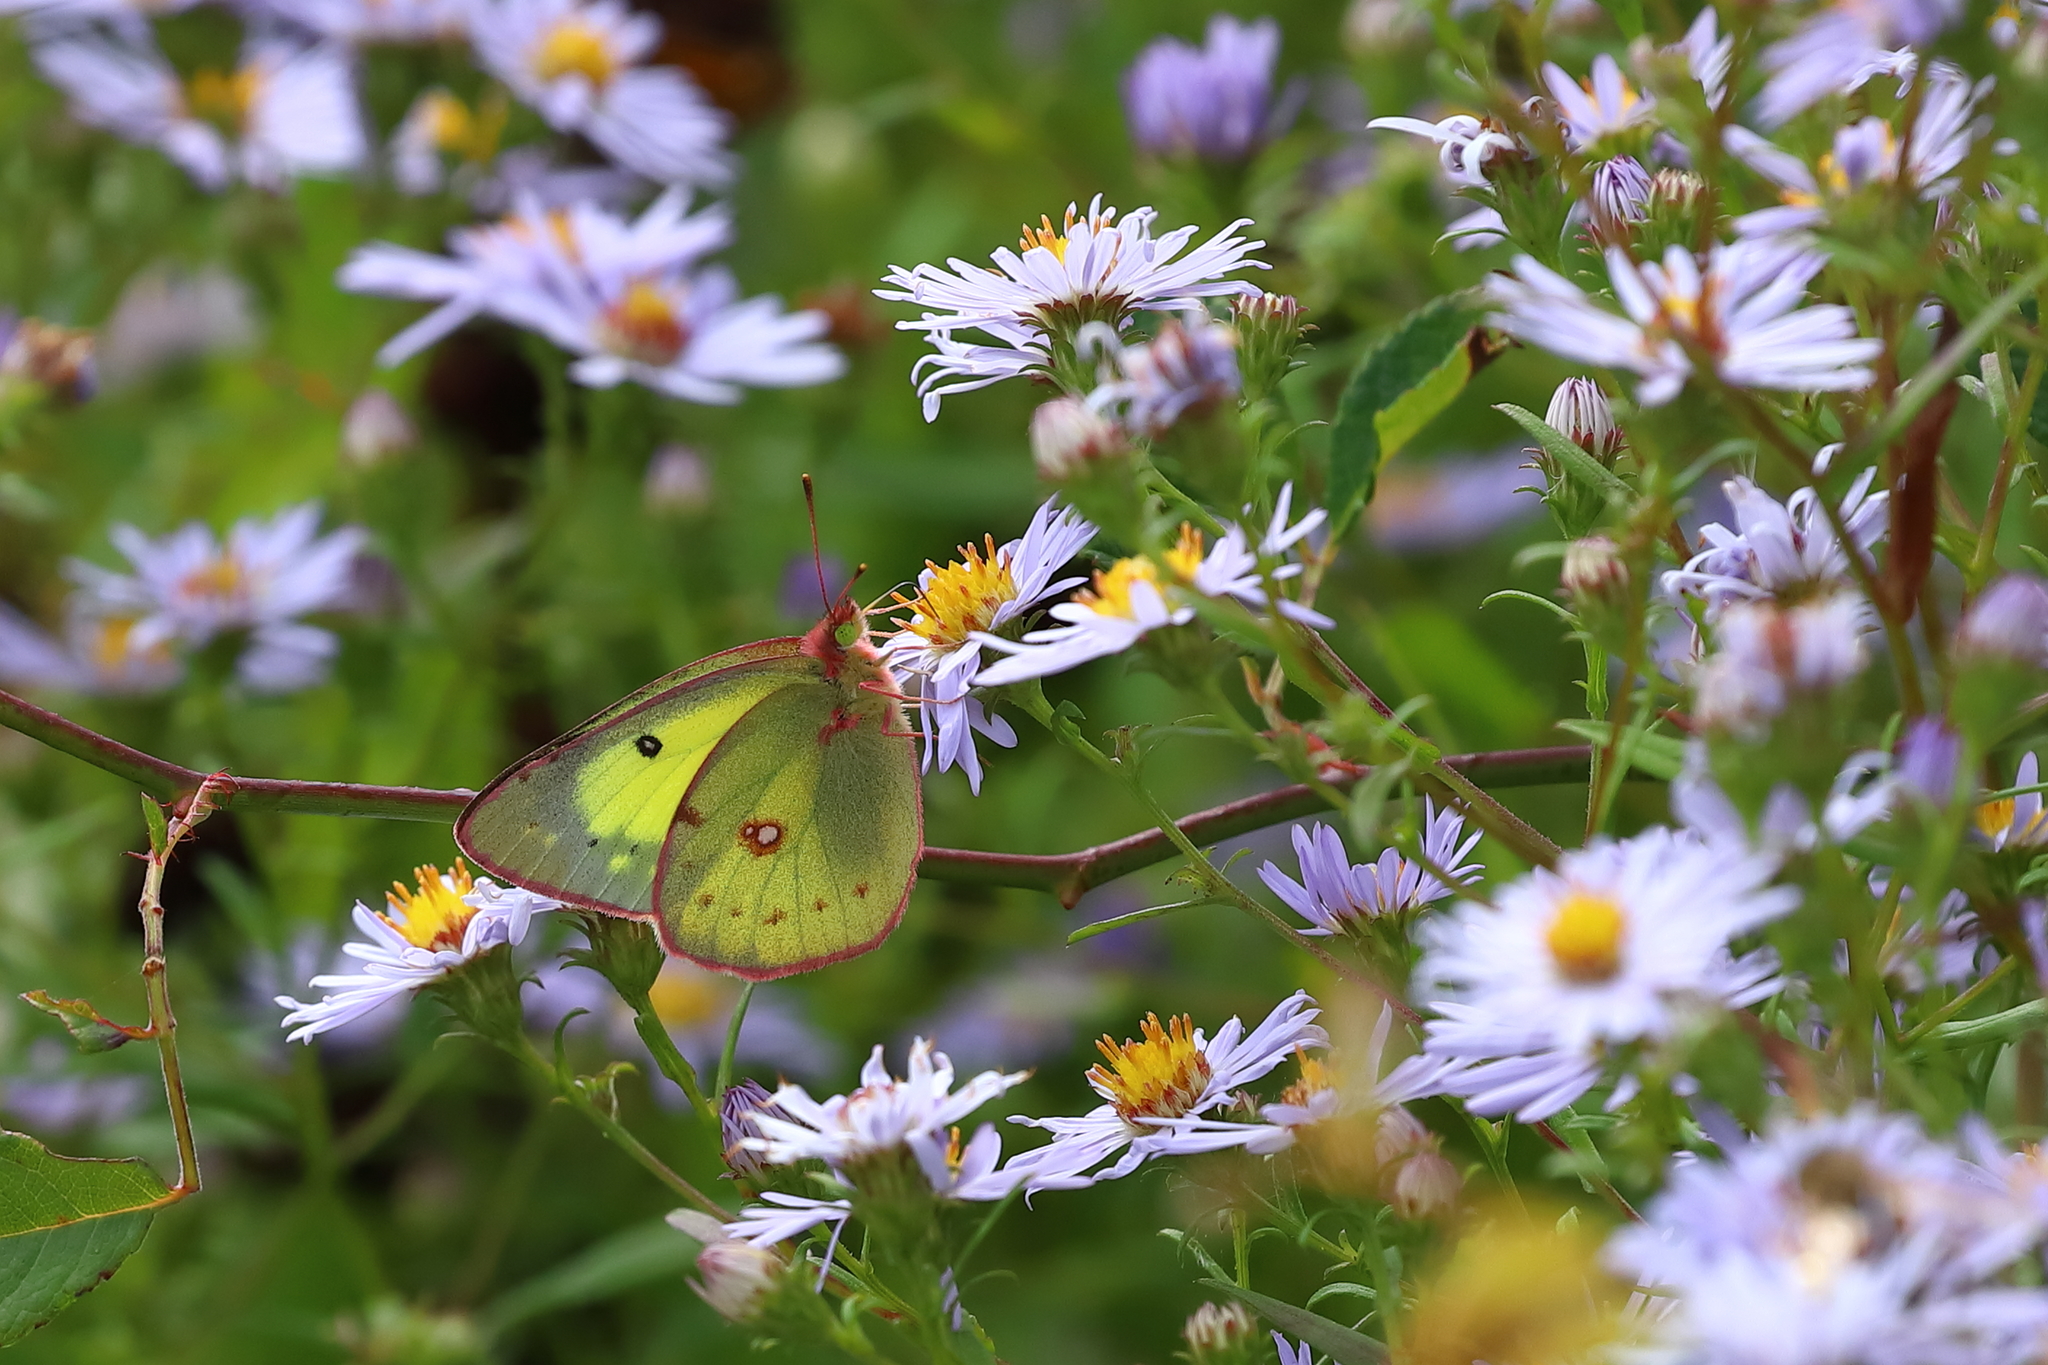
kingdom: Animalia
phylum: Arthropoda
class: Insecta
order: Lepidoptera
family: Pieridae
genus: Colias
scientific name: Colias philodice
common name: Clouded sulphur
